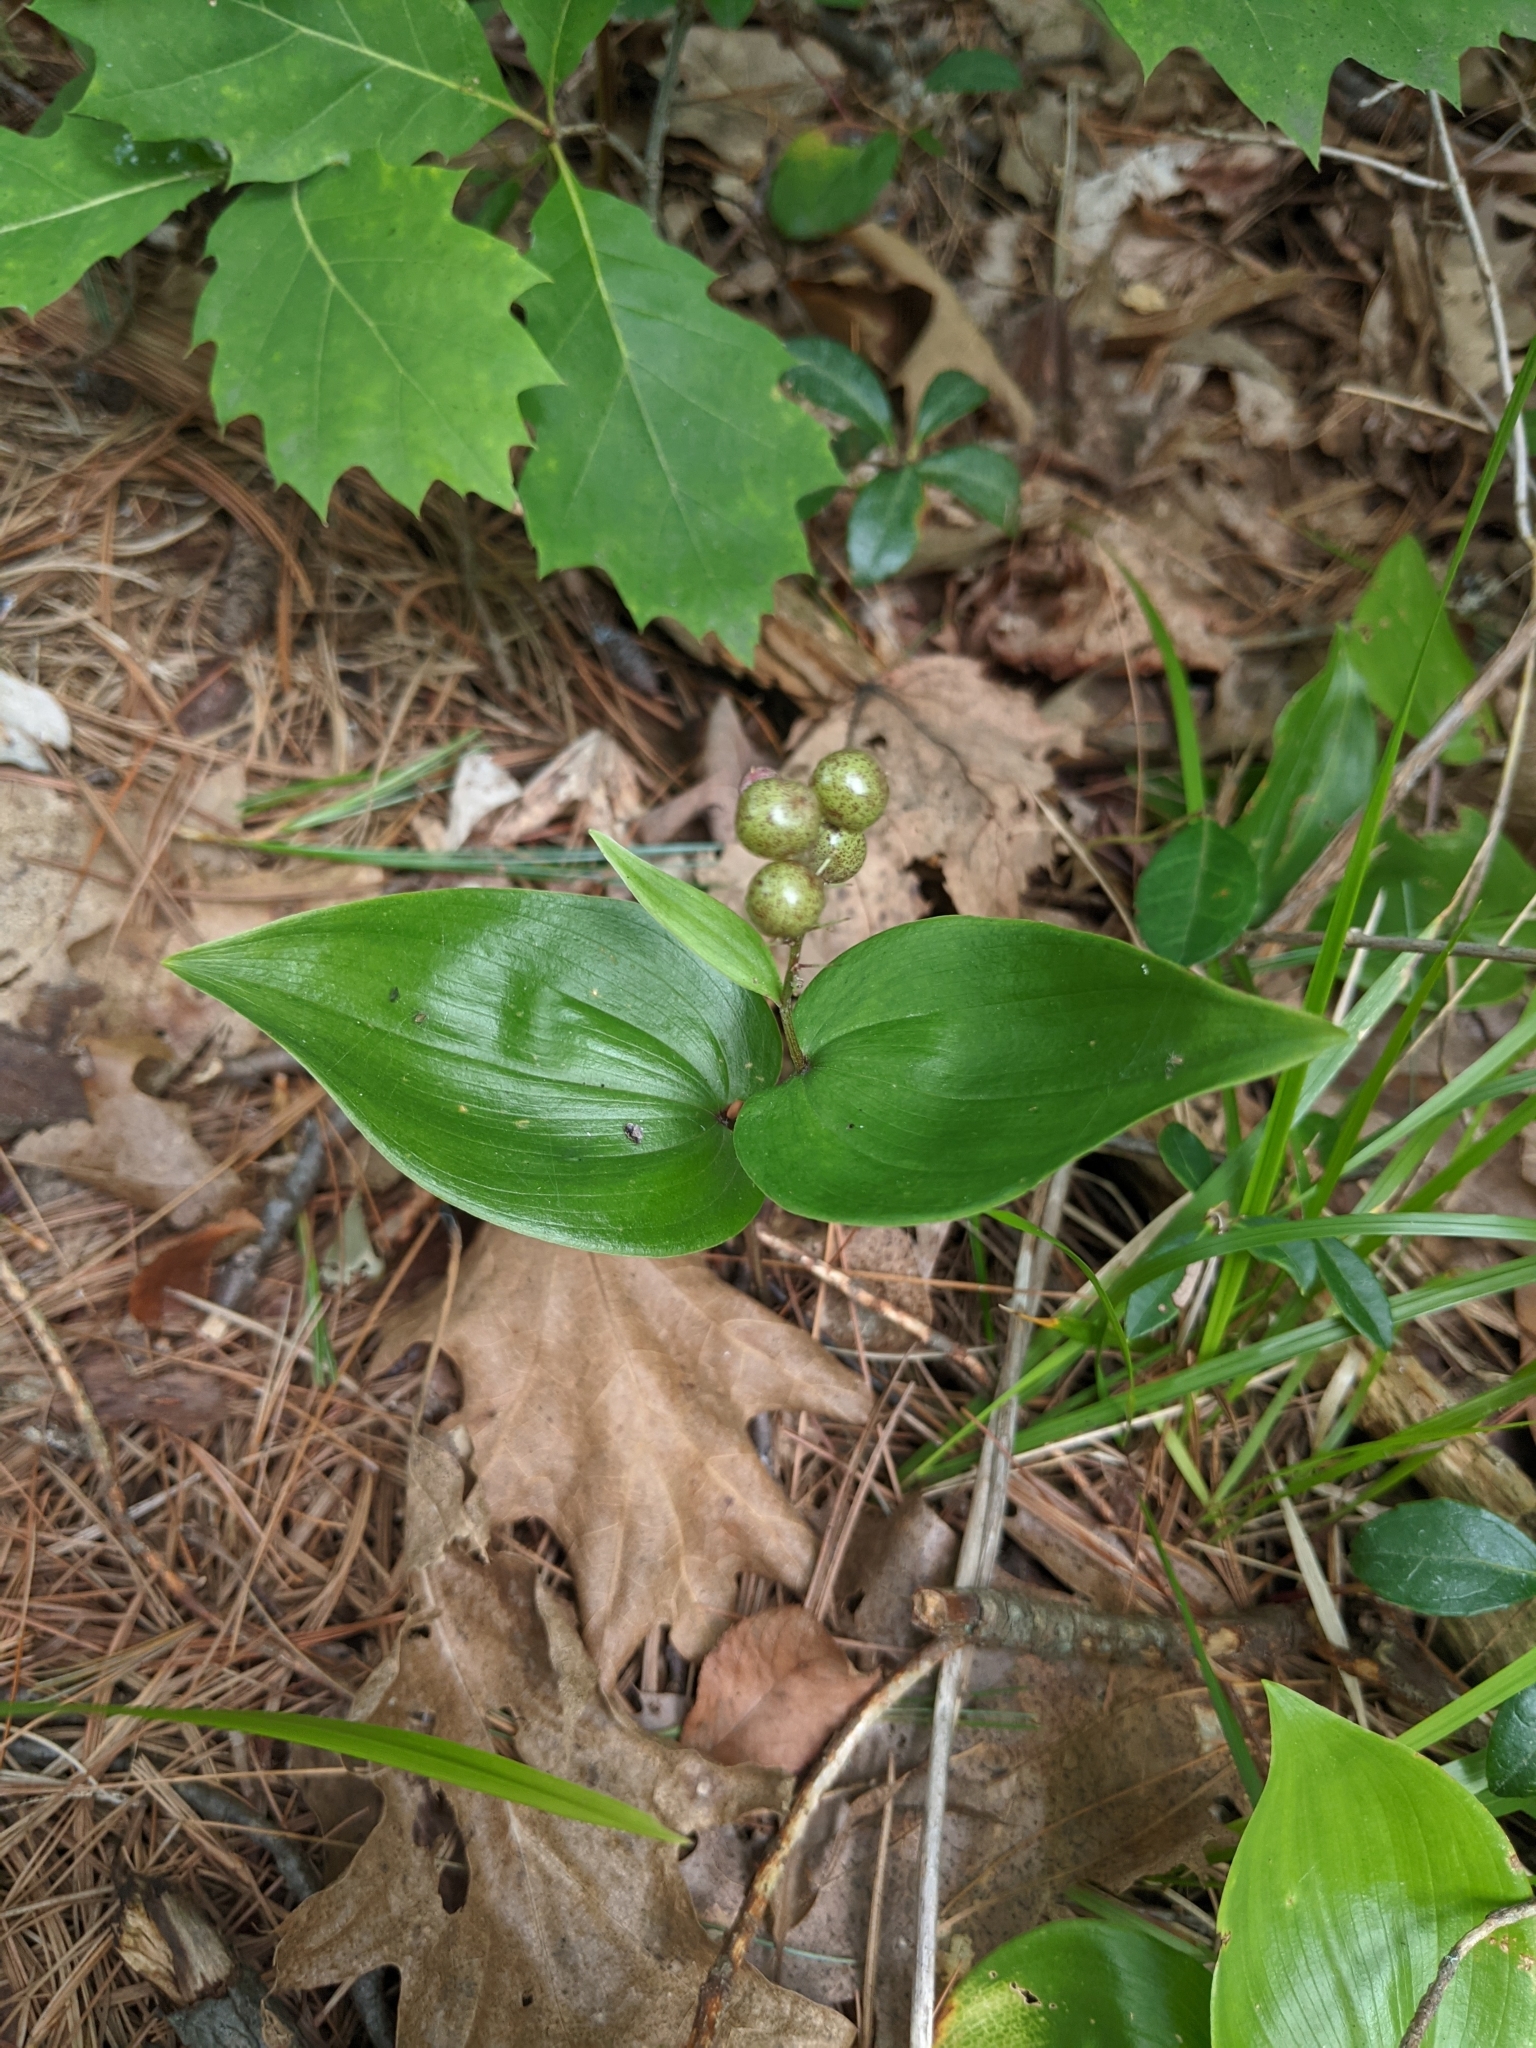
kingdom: Plantae
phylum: Tracheophyta
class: Liliopsida
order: Asparagales
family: Asparagaceae
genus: Maianthemum
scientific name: Maianthemum canadense
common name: False lily-of-the-valley
